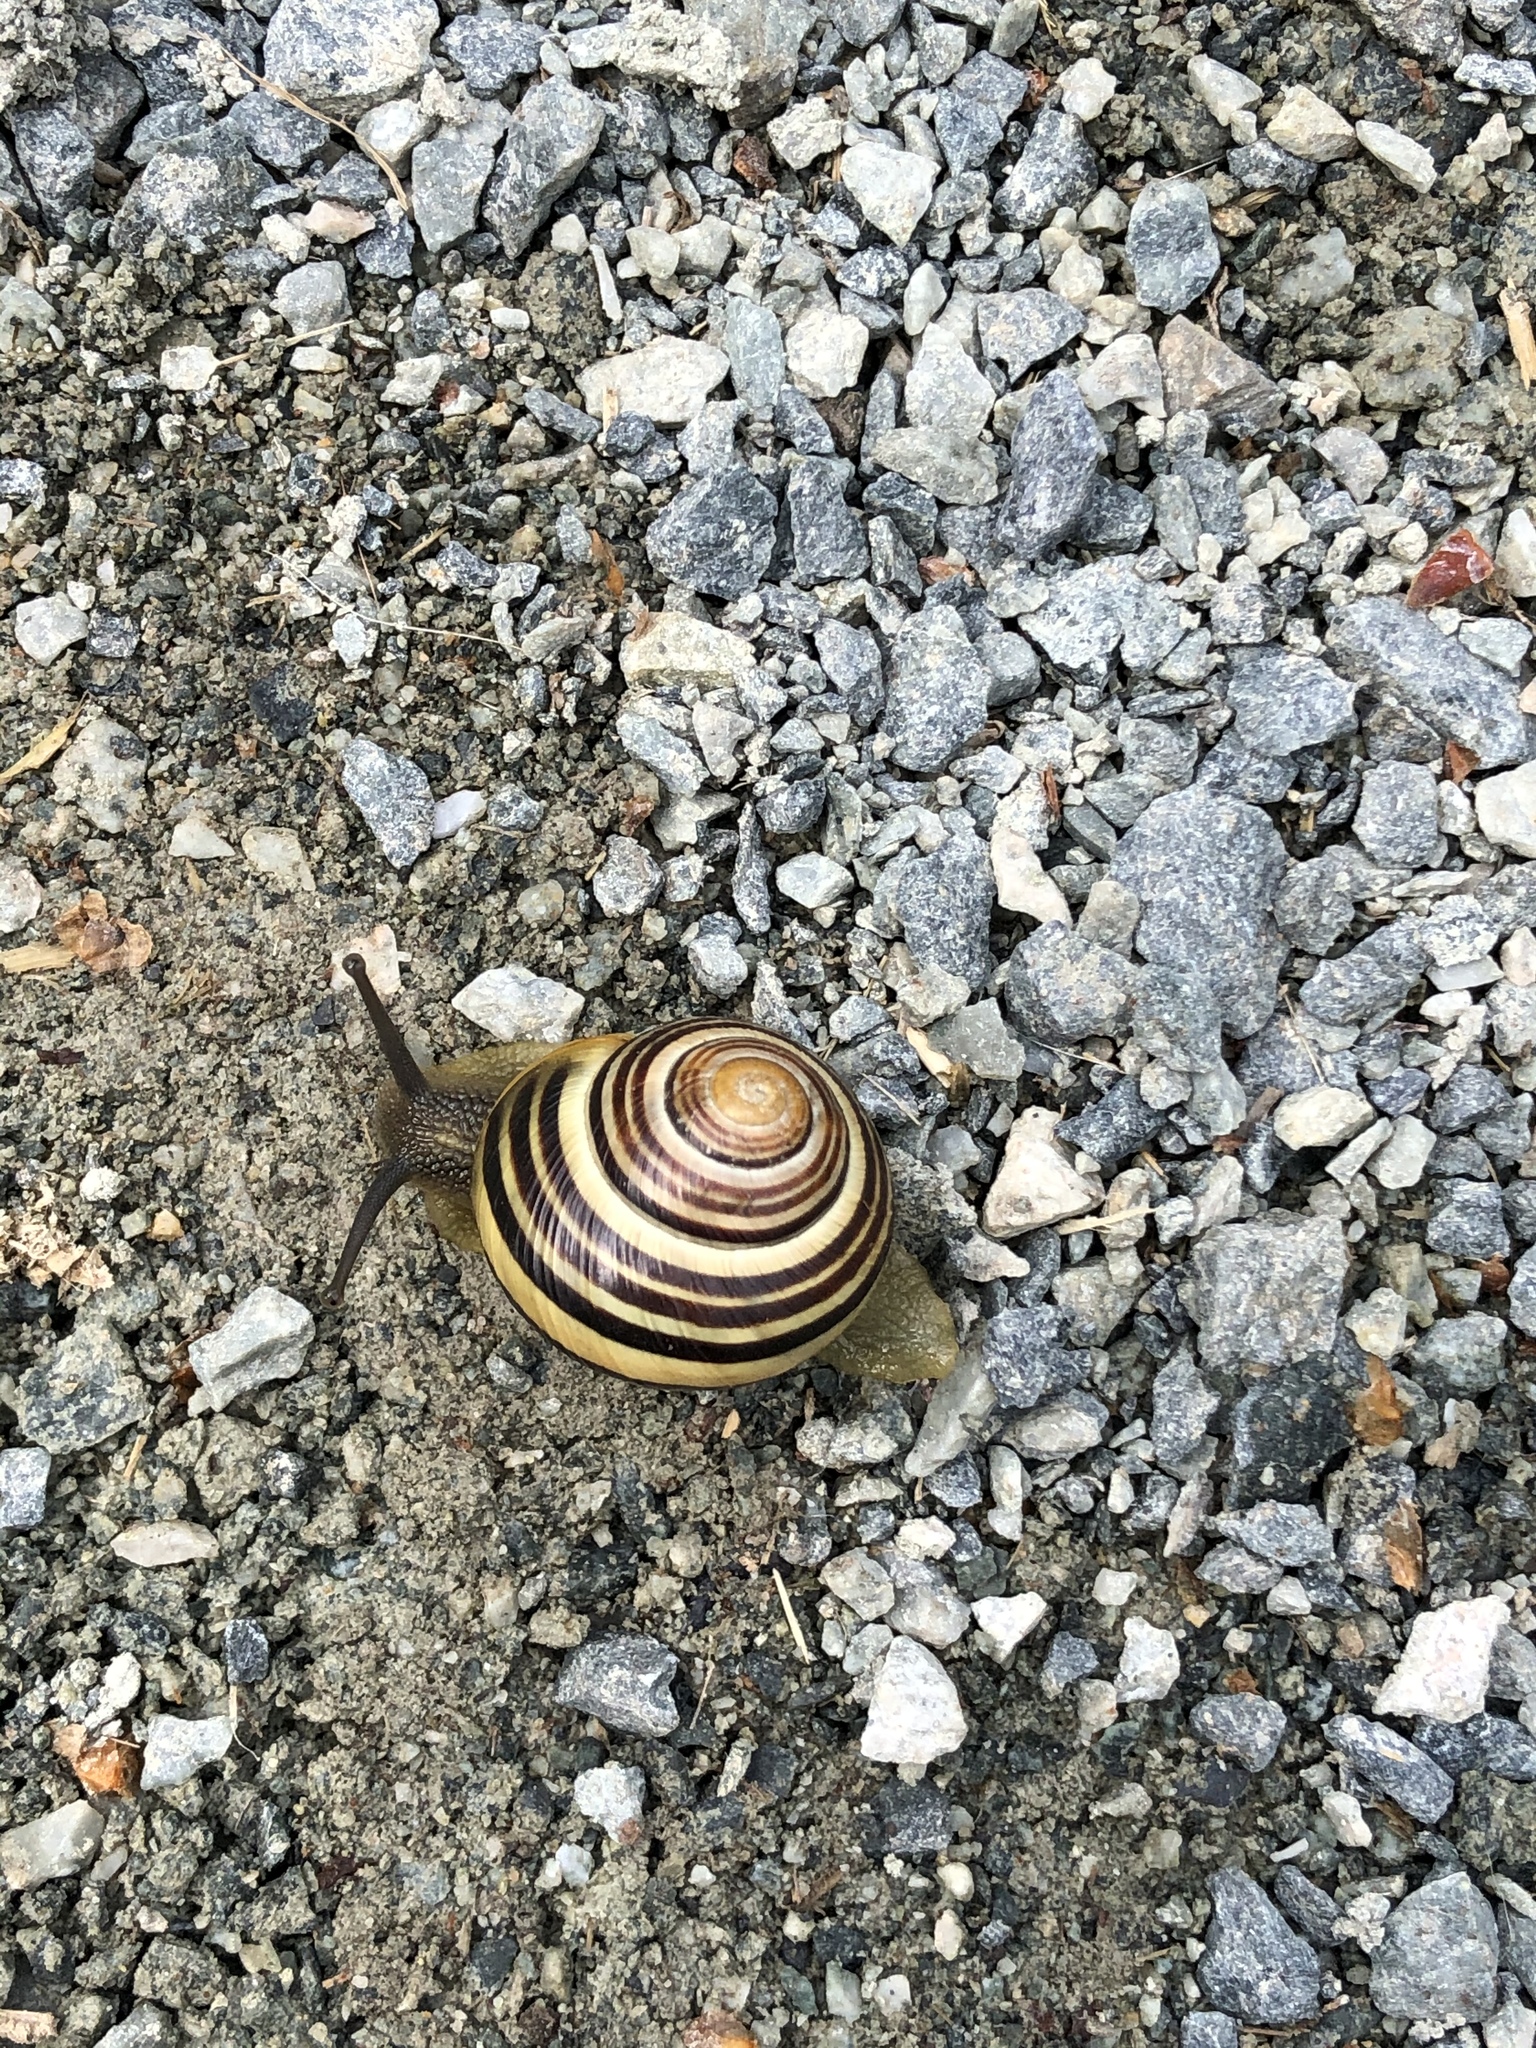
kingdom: Animalia
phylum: Mollusca
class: Gastropoda
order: Stylommatophora
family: Helicidae
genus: Cepaea
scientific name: Cepaea nemoralis
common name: Grovesnail
